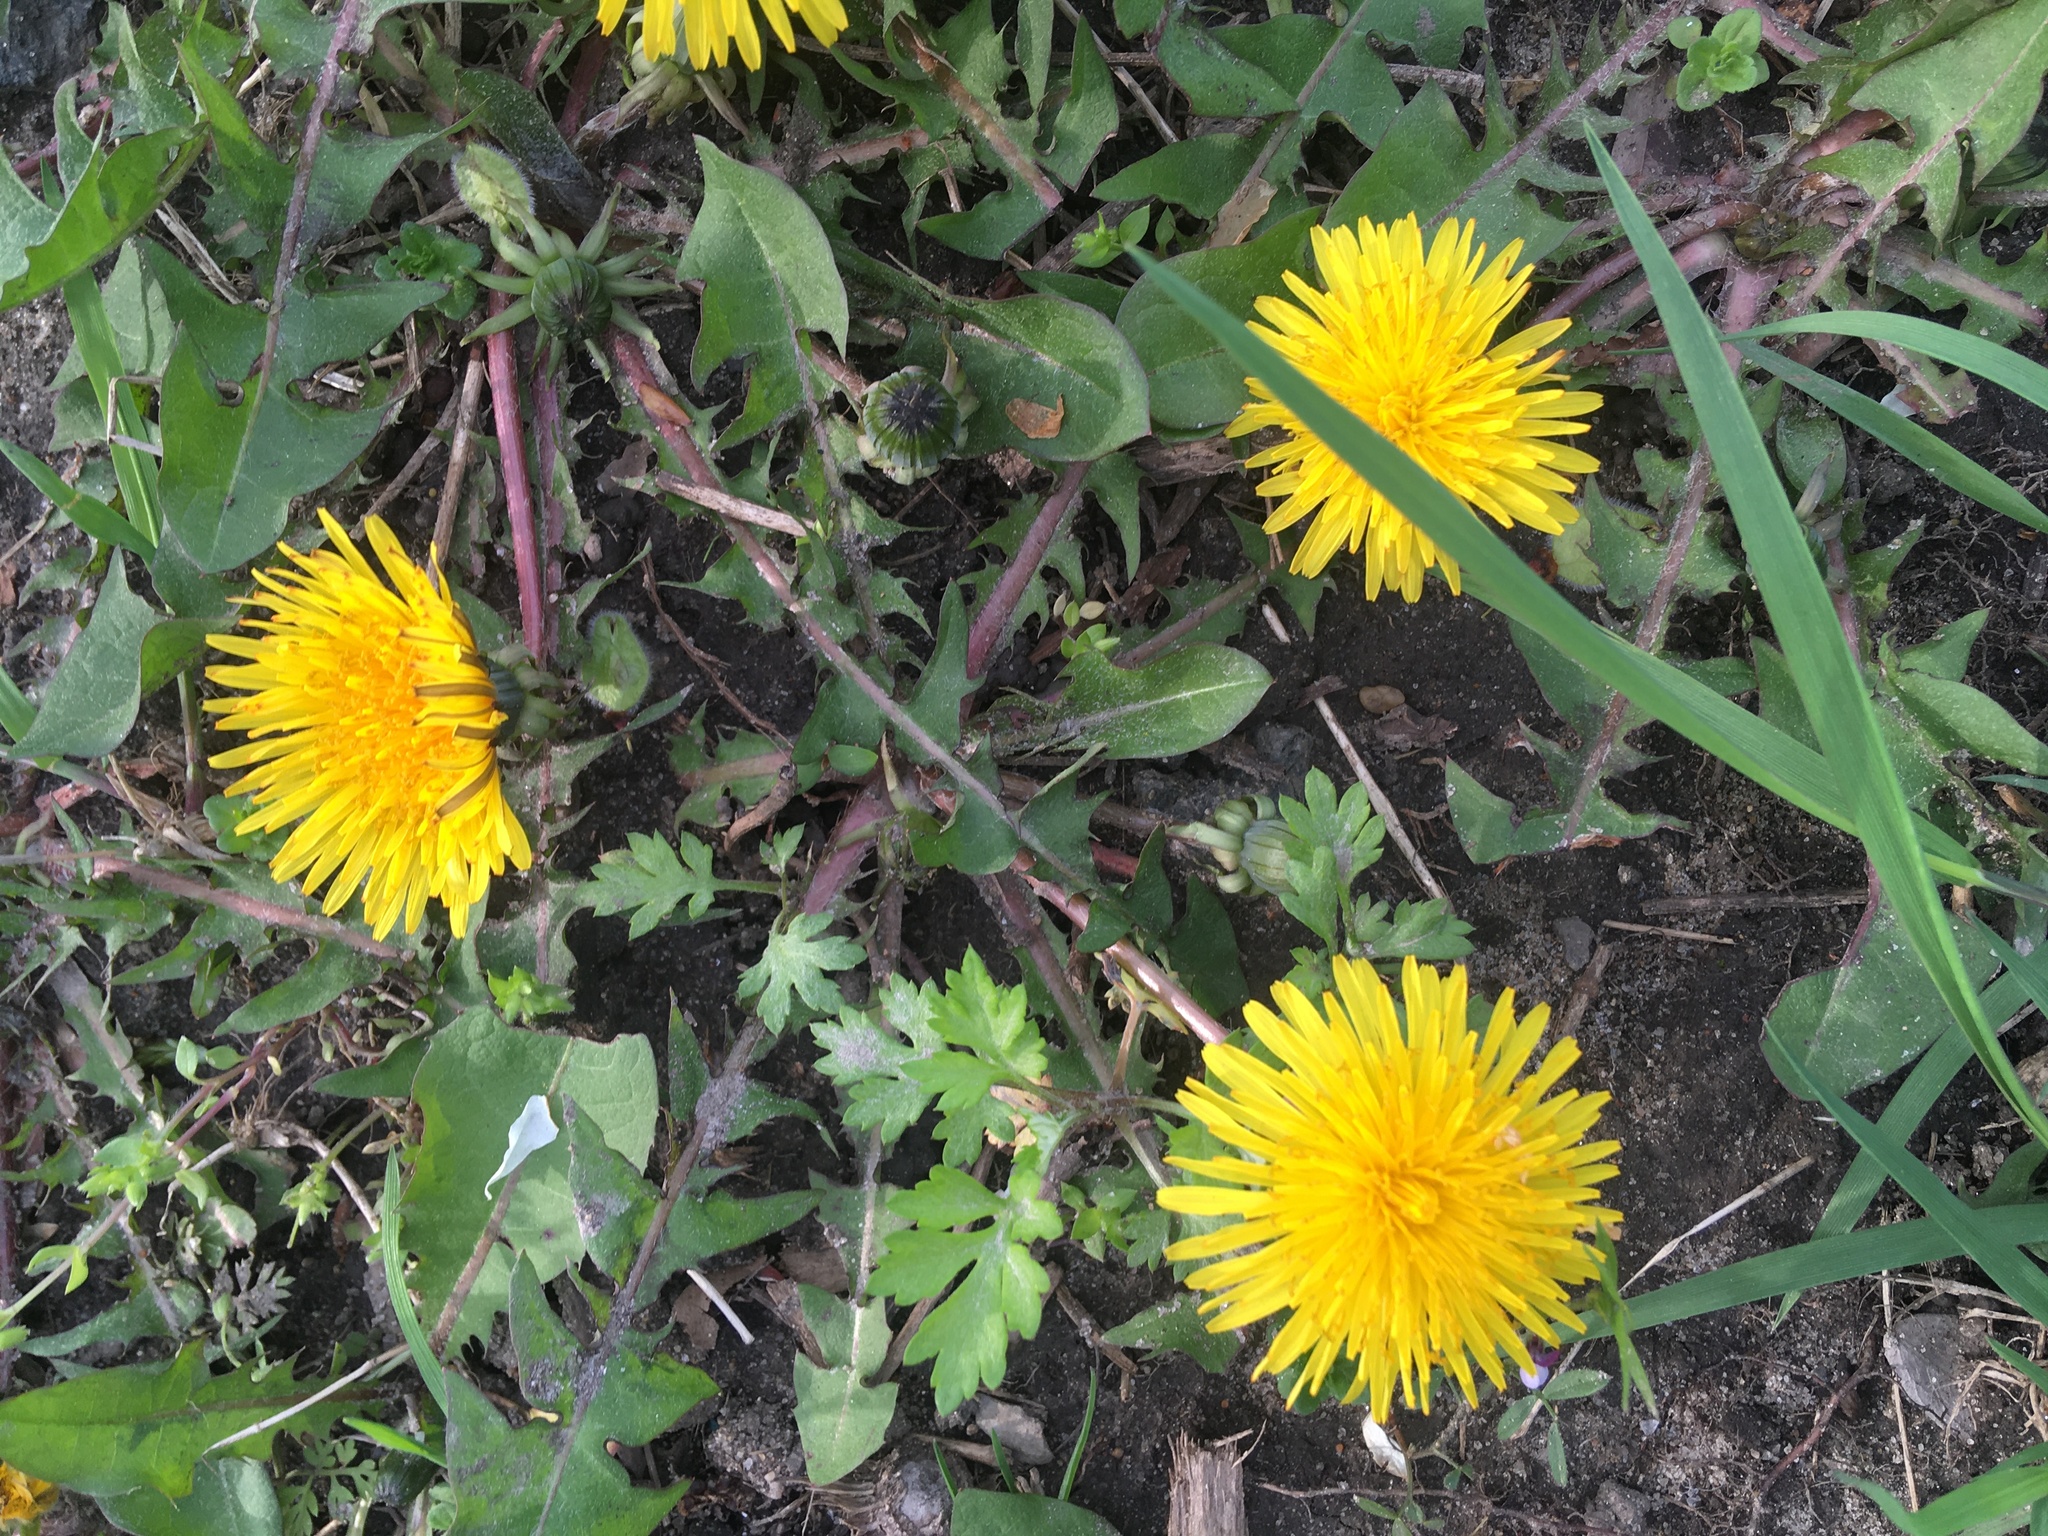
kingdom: Plantae
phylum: Tracheophyta
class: Magnoliopsida
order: Asterales
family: Asteraceae
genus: Taraxacum
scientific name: Taraxacum officinale
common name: Common dandelion
